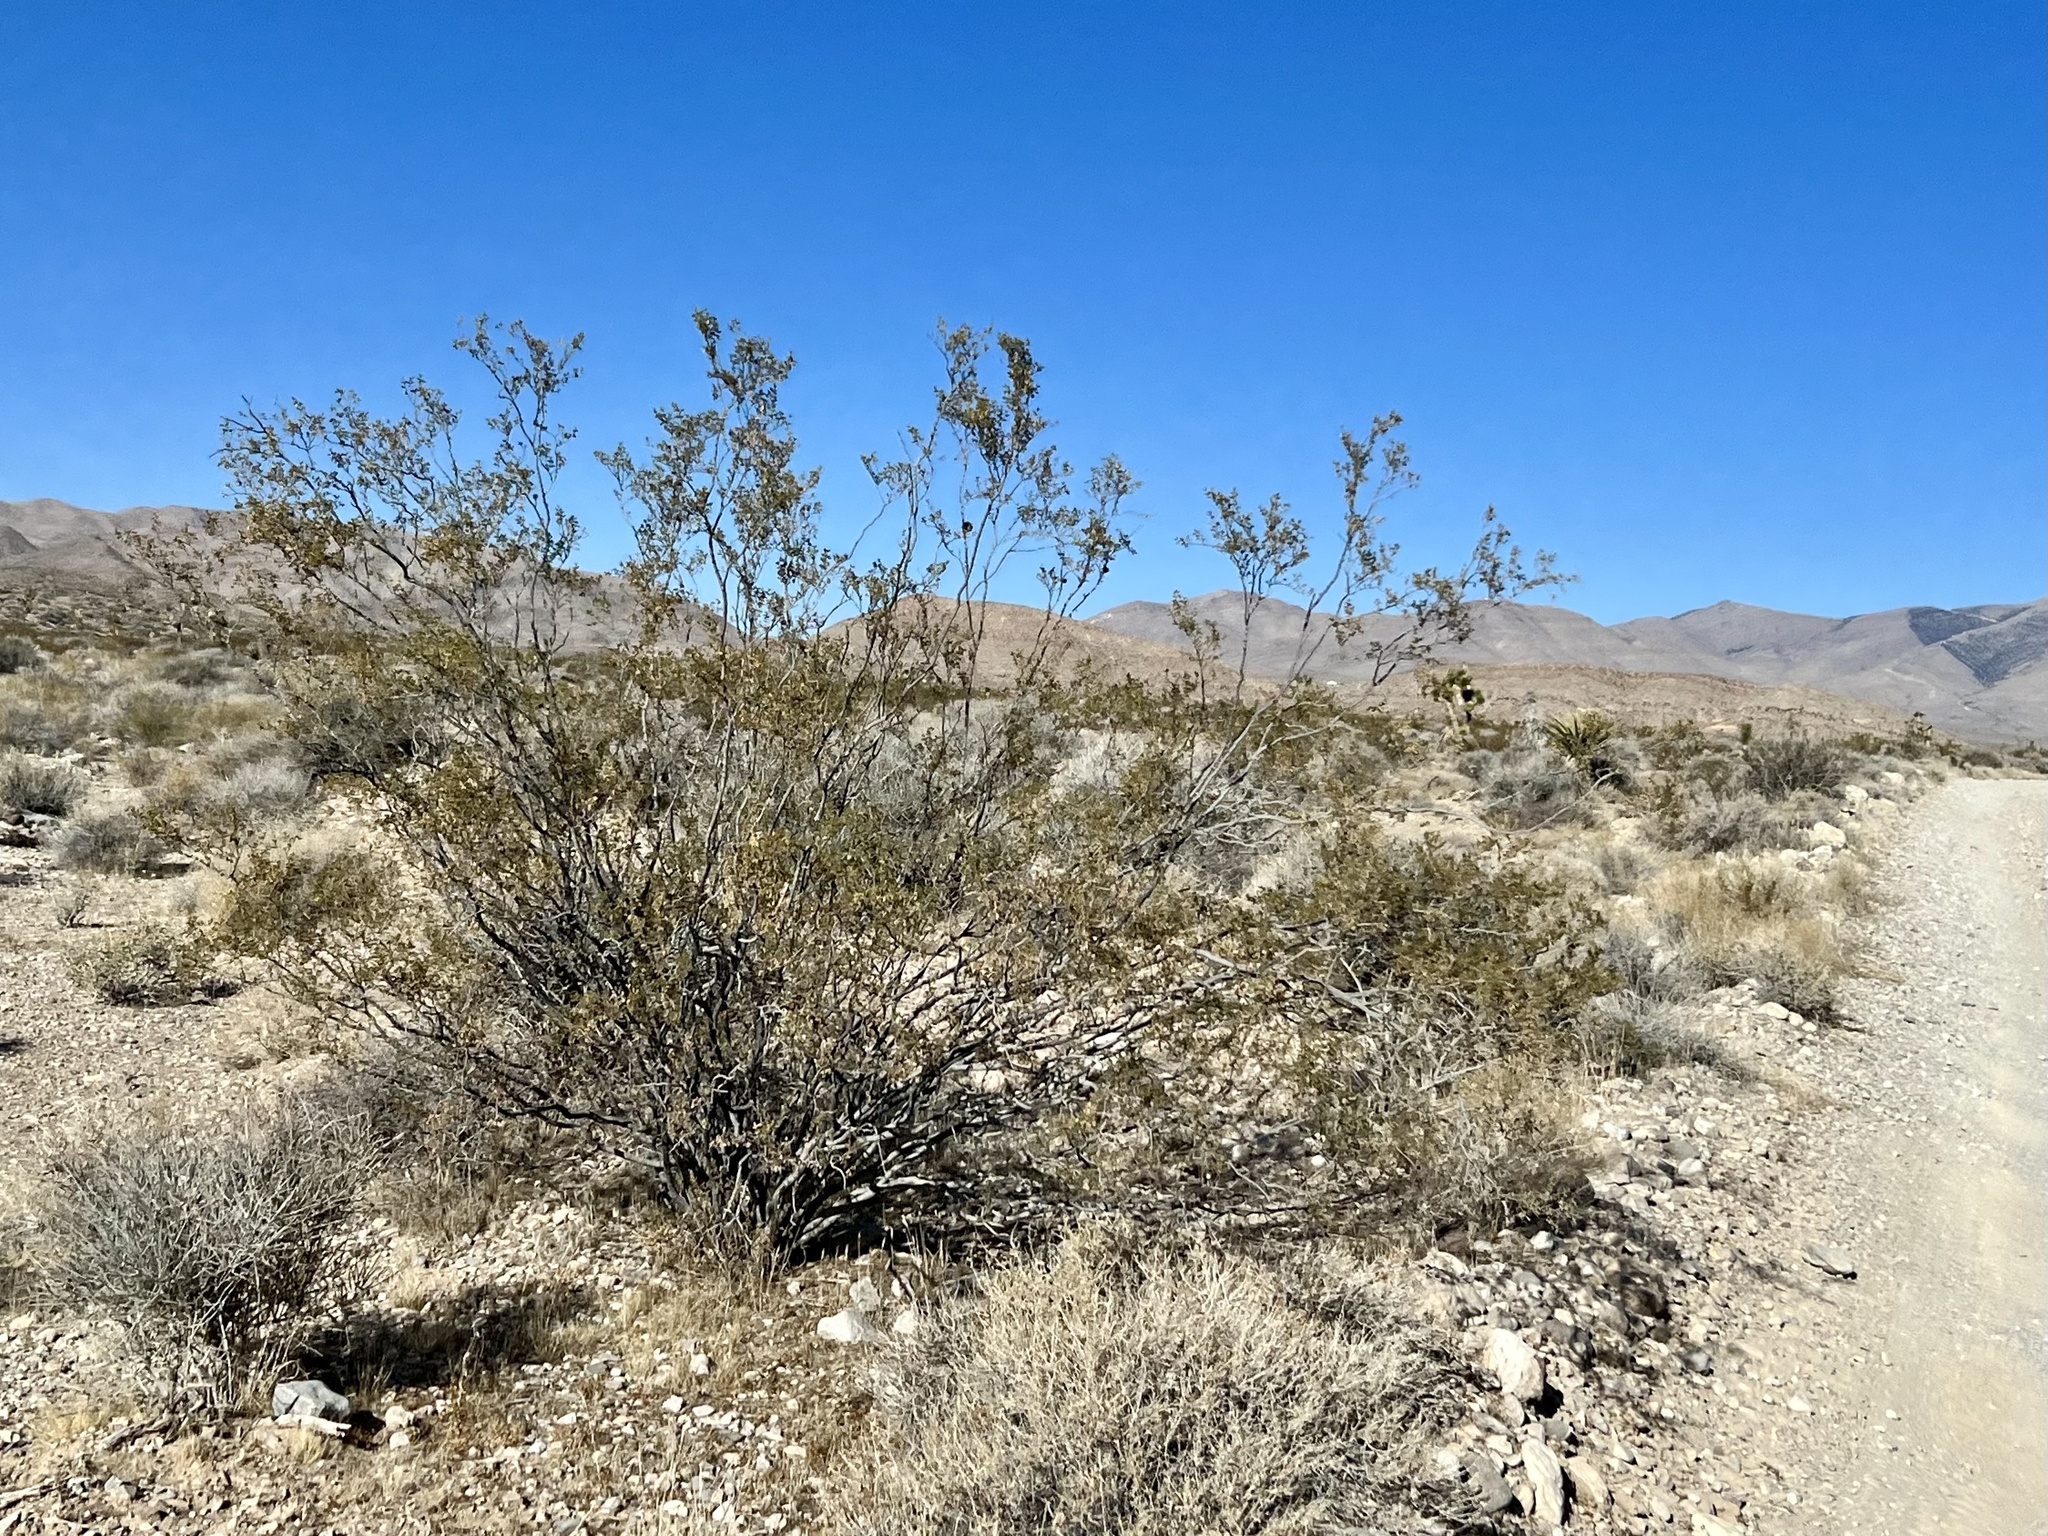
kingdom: Plantae
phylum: Tracheophyta
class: Magnoliopsida
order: Zygophyllales
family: Zygophyllaceae
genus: Larrea
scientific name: Larrea tridentata
